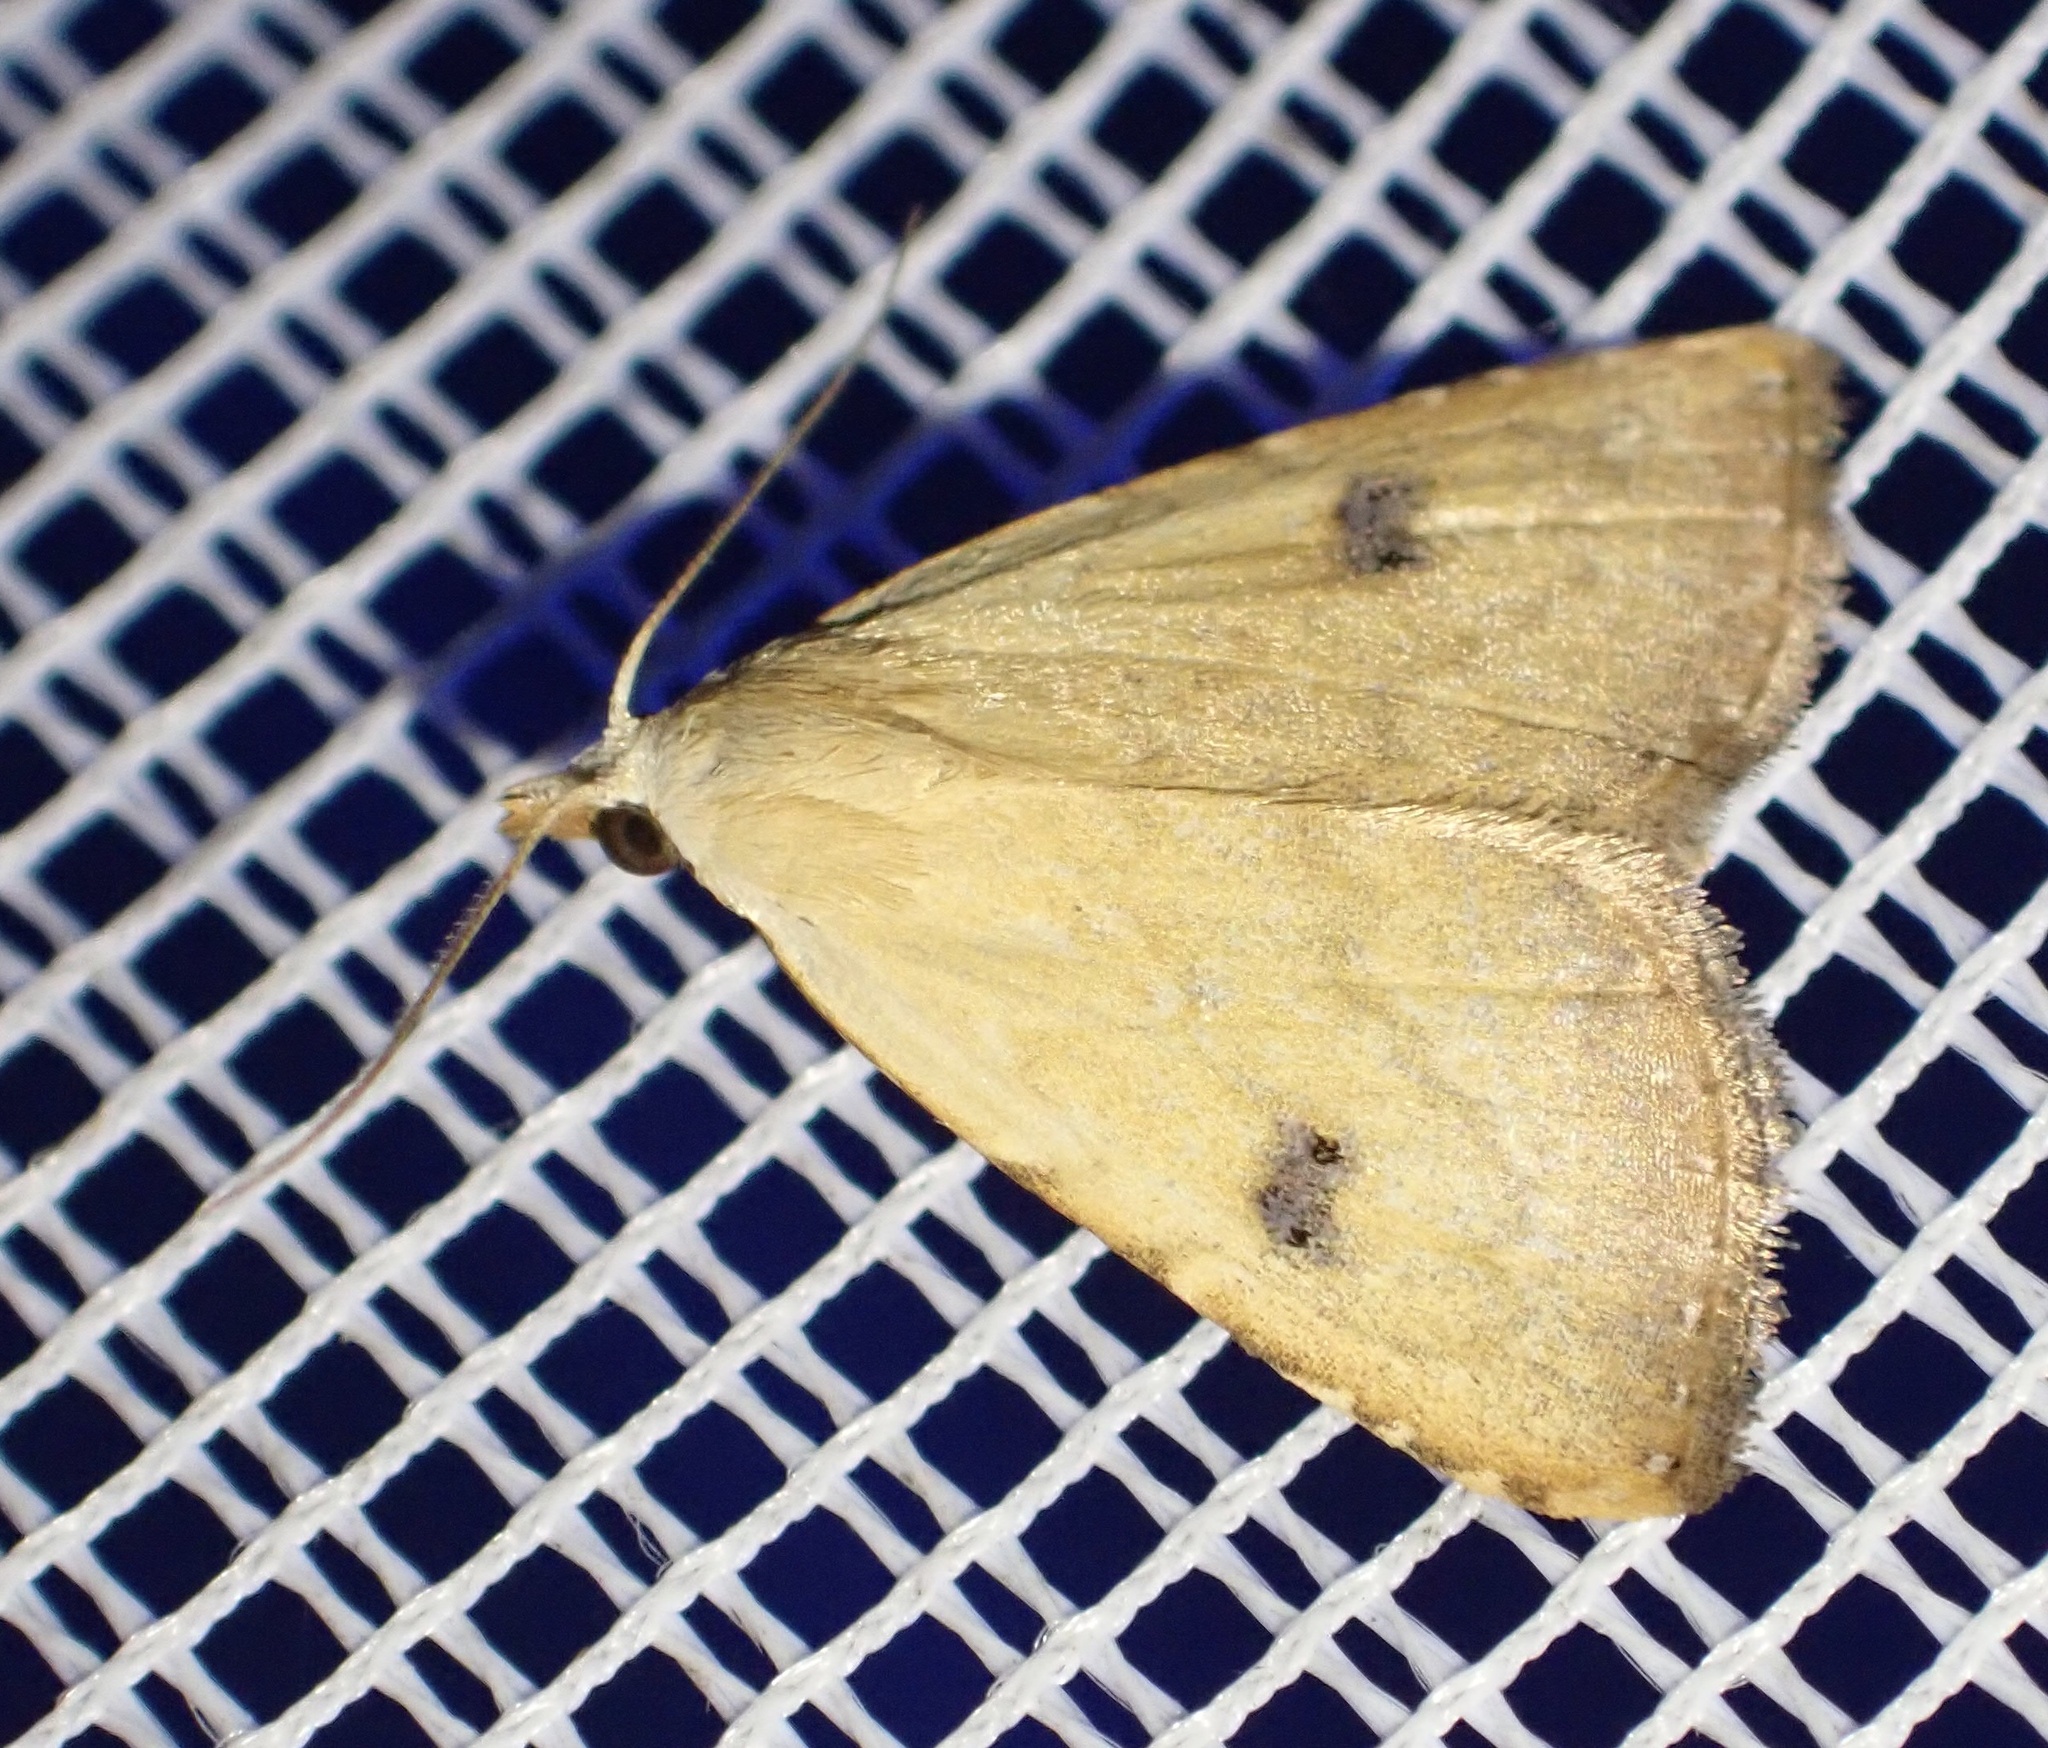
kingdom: Animalia
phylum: Arthropoda
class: Insecta
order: Lepidoptera
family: Erebidae
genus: Rivula
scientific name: Rivula sericealis
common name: Straw dot
